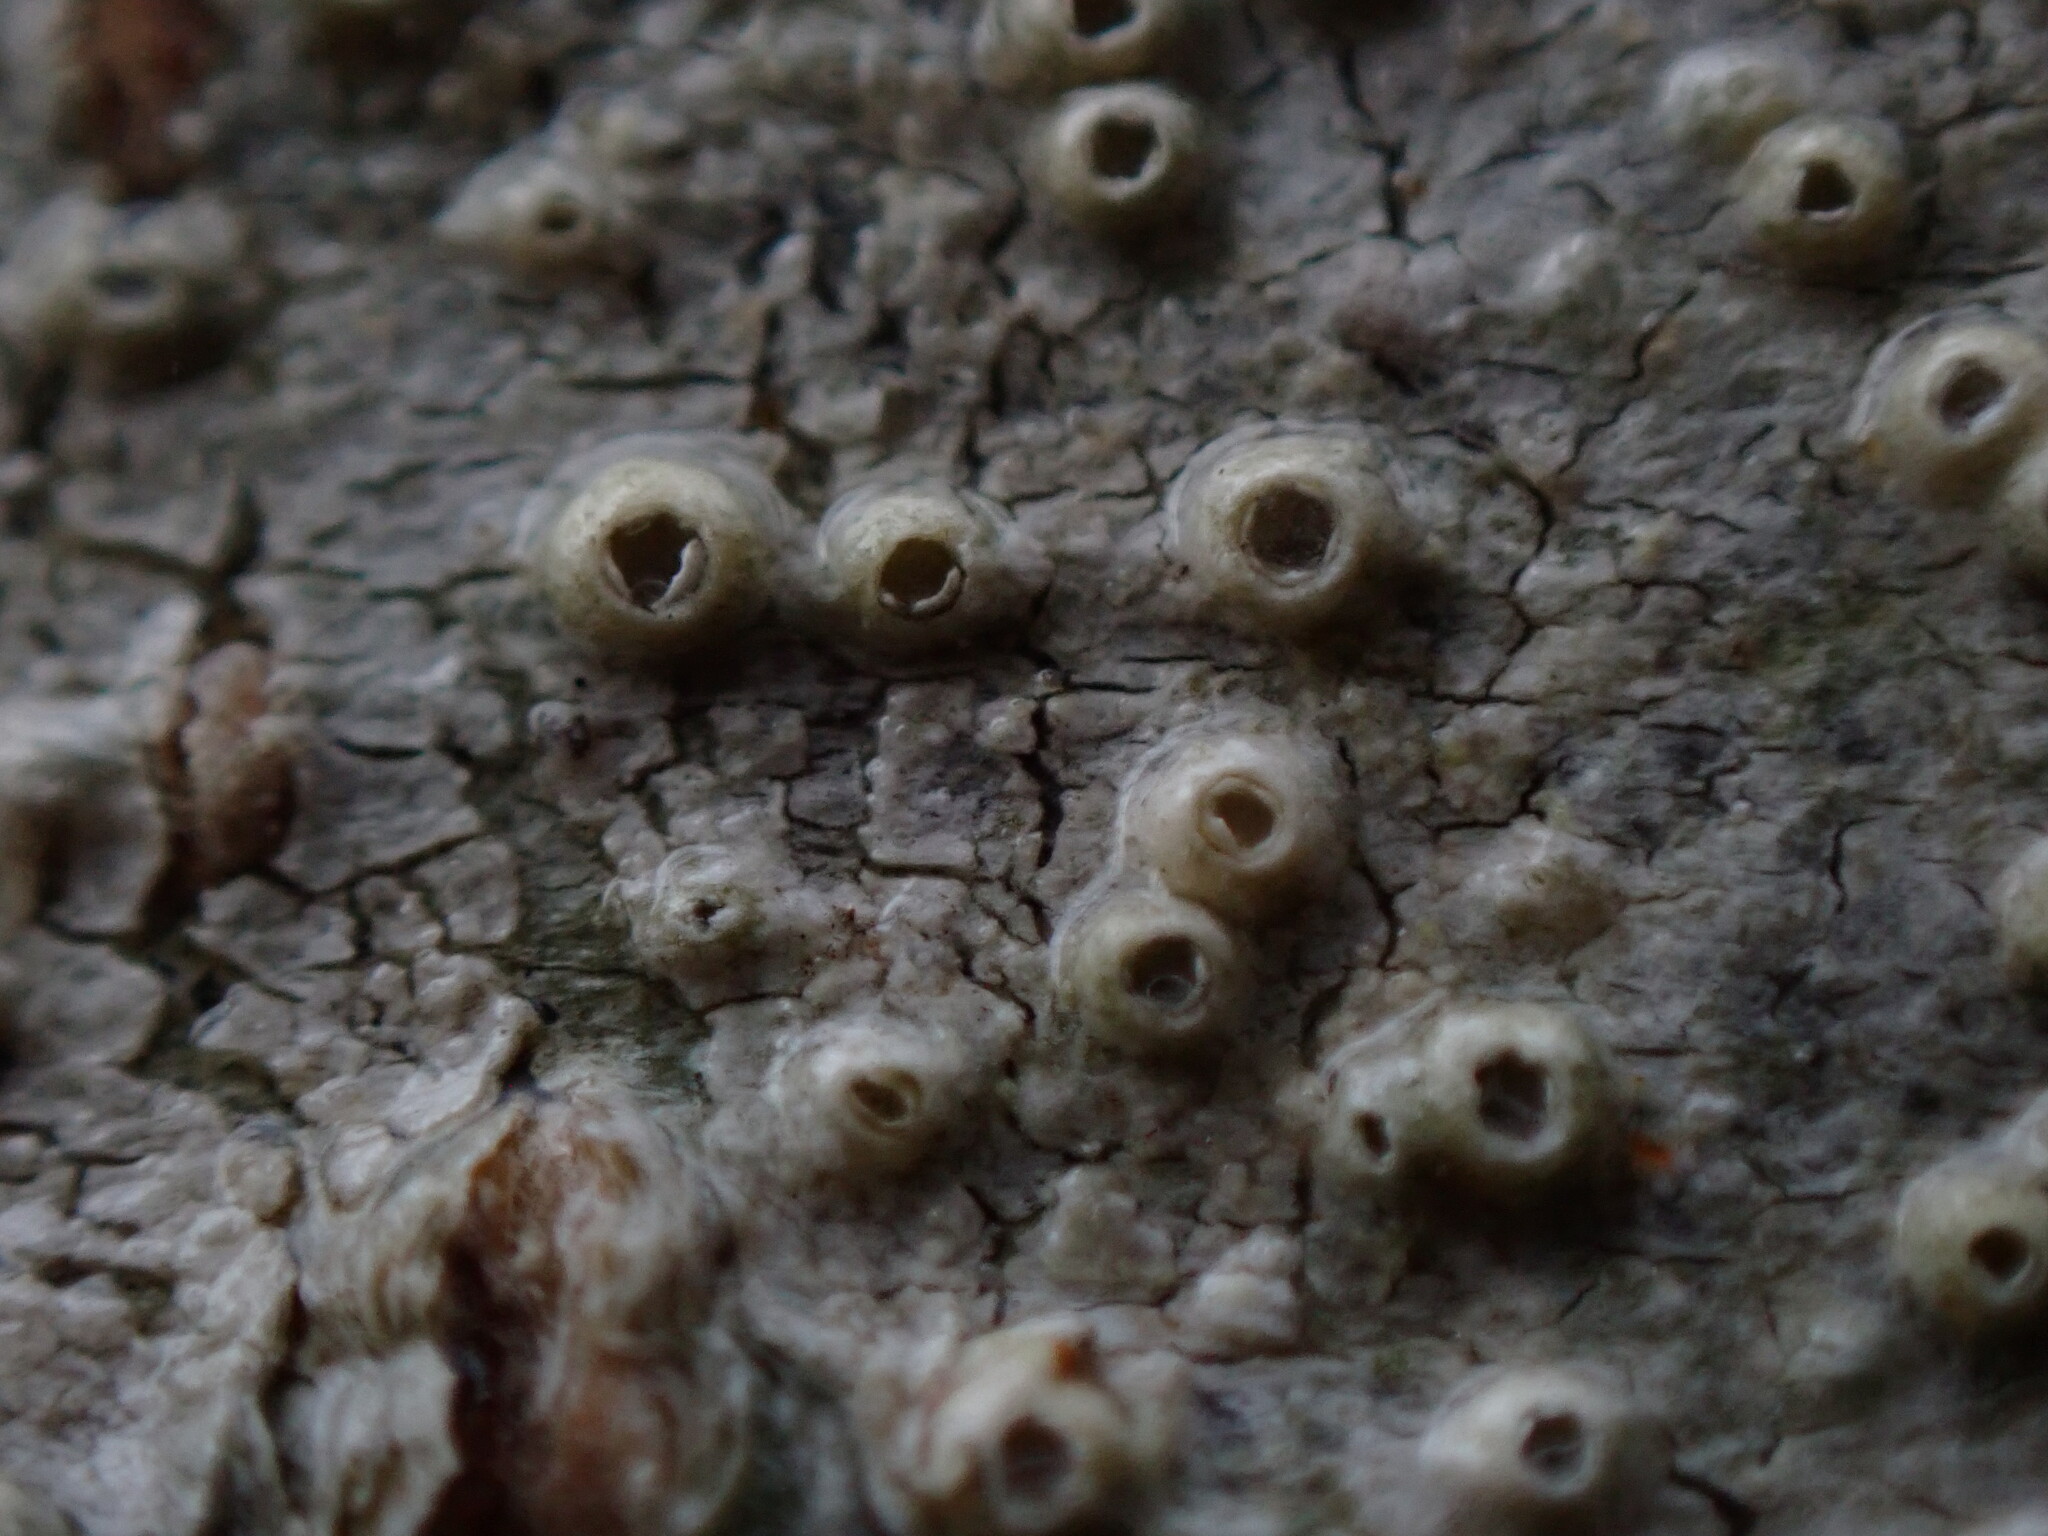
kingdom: Fungi
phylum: Ascomycota
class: Lecanoromycetes
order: Ostropales
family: Graphidaceae
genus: Thelotrema
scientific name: Thelotrema lepadinum
